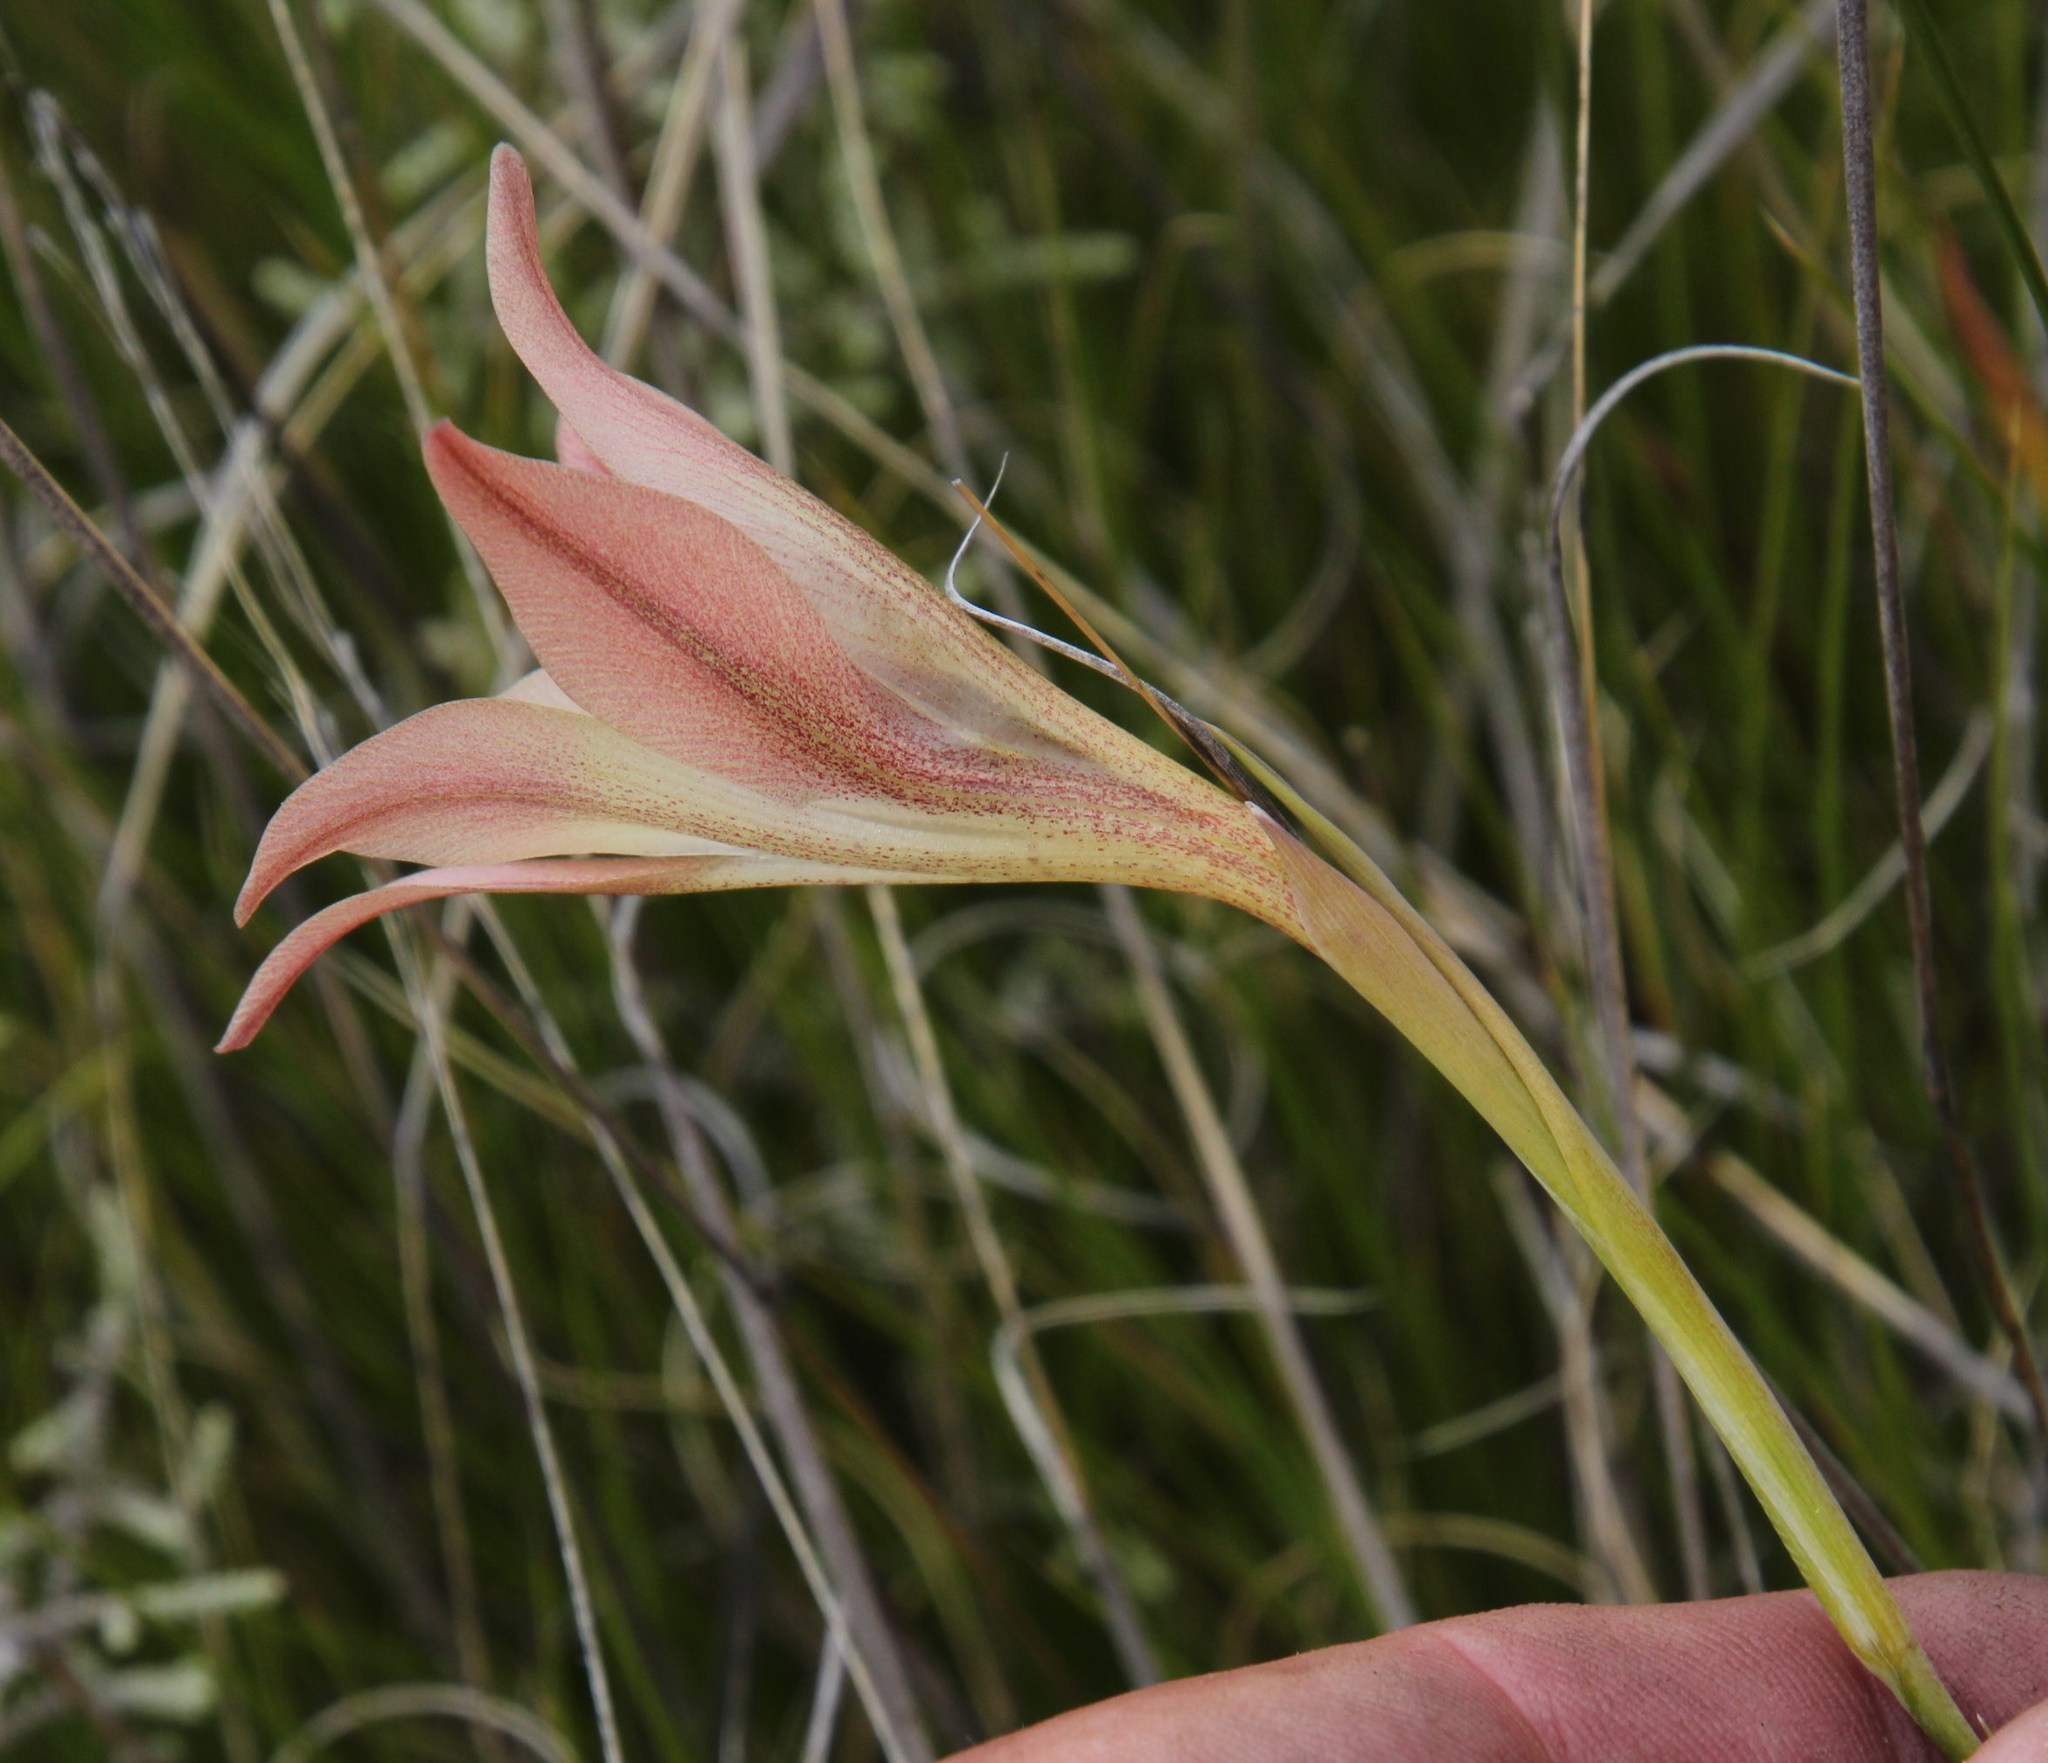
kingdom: Plantae
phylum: Tracheophyta
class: Liliopsida
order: Asparagales
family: Iridaceae
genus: Gladiolus
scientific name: Gladiolus liliaceus
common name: Large brown afrikaner
